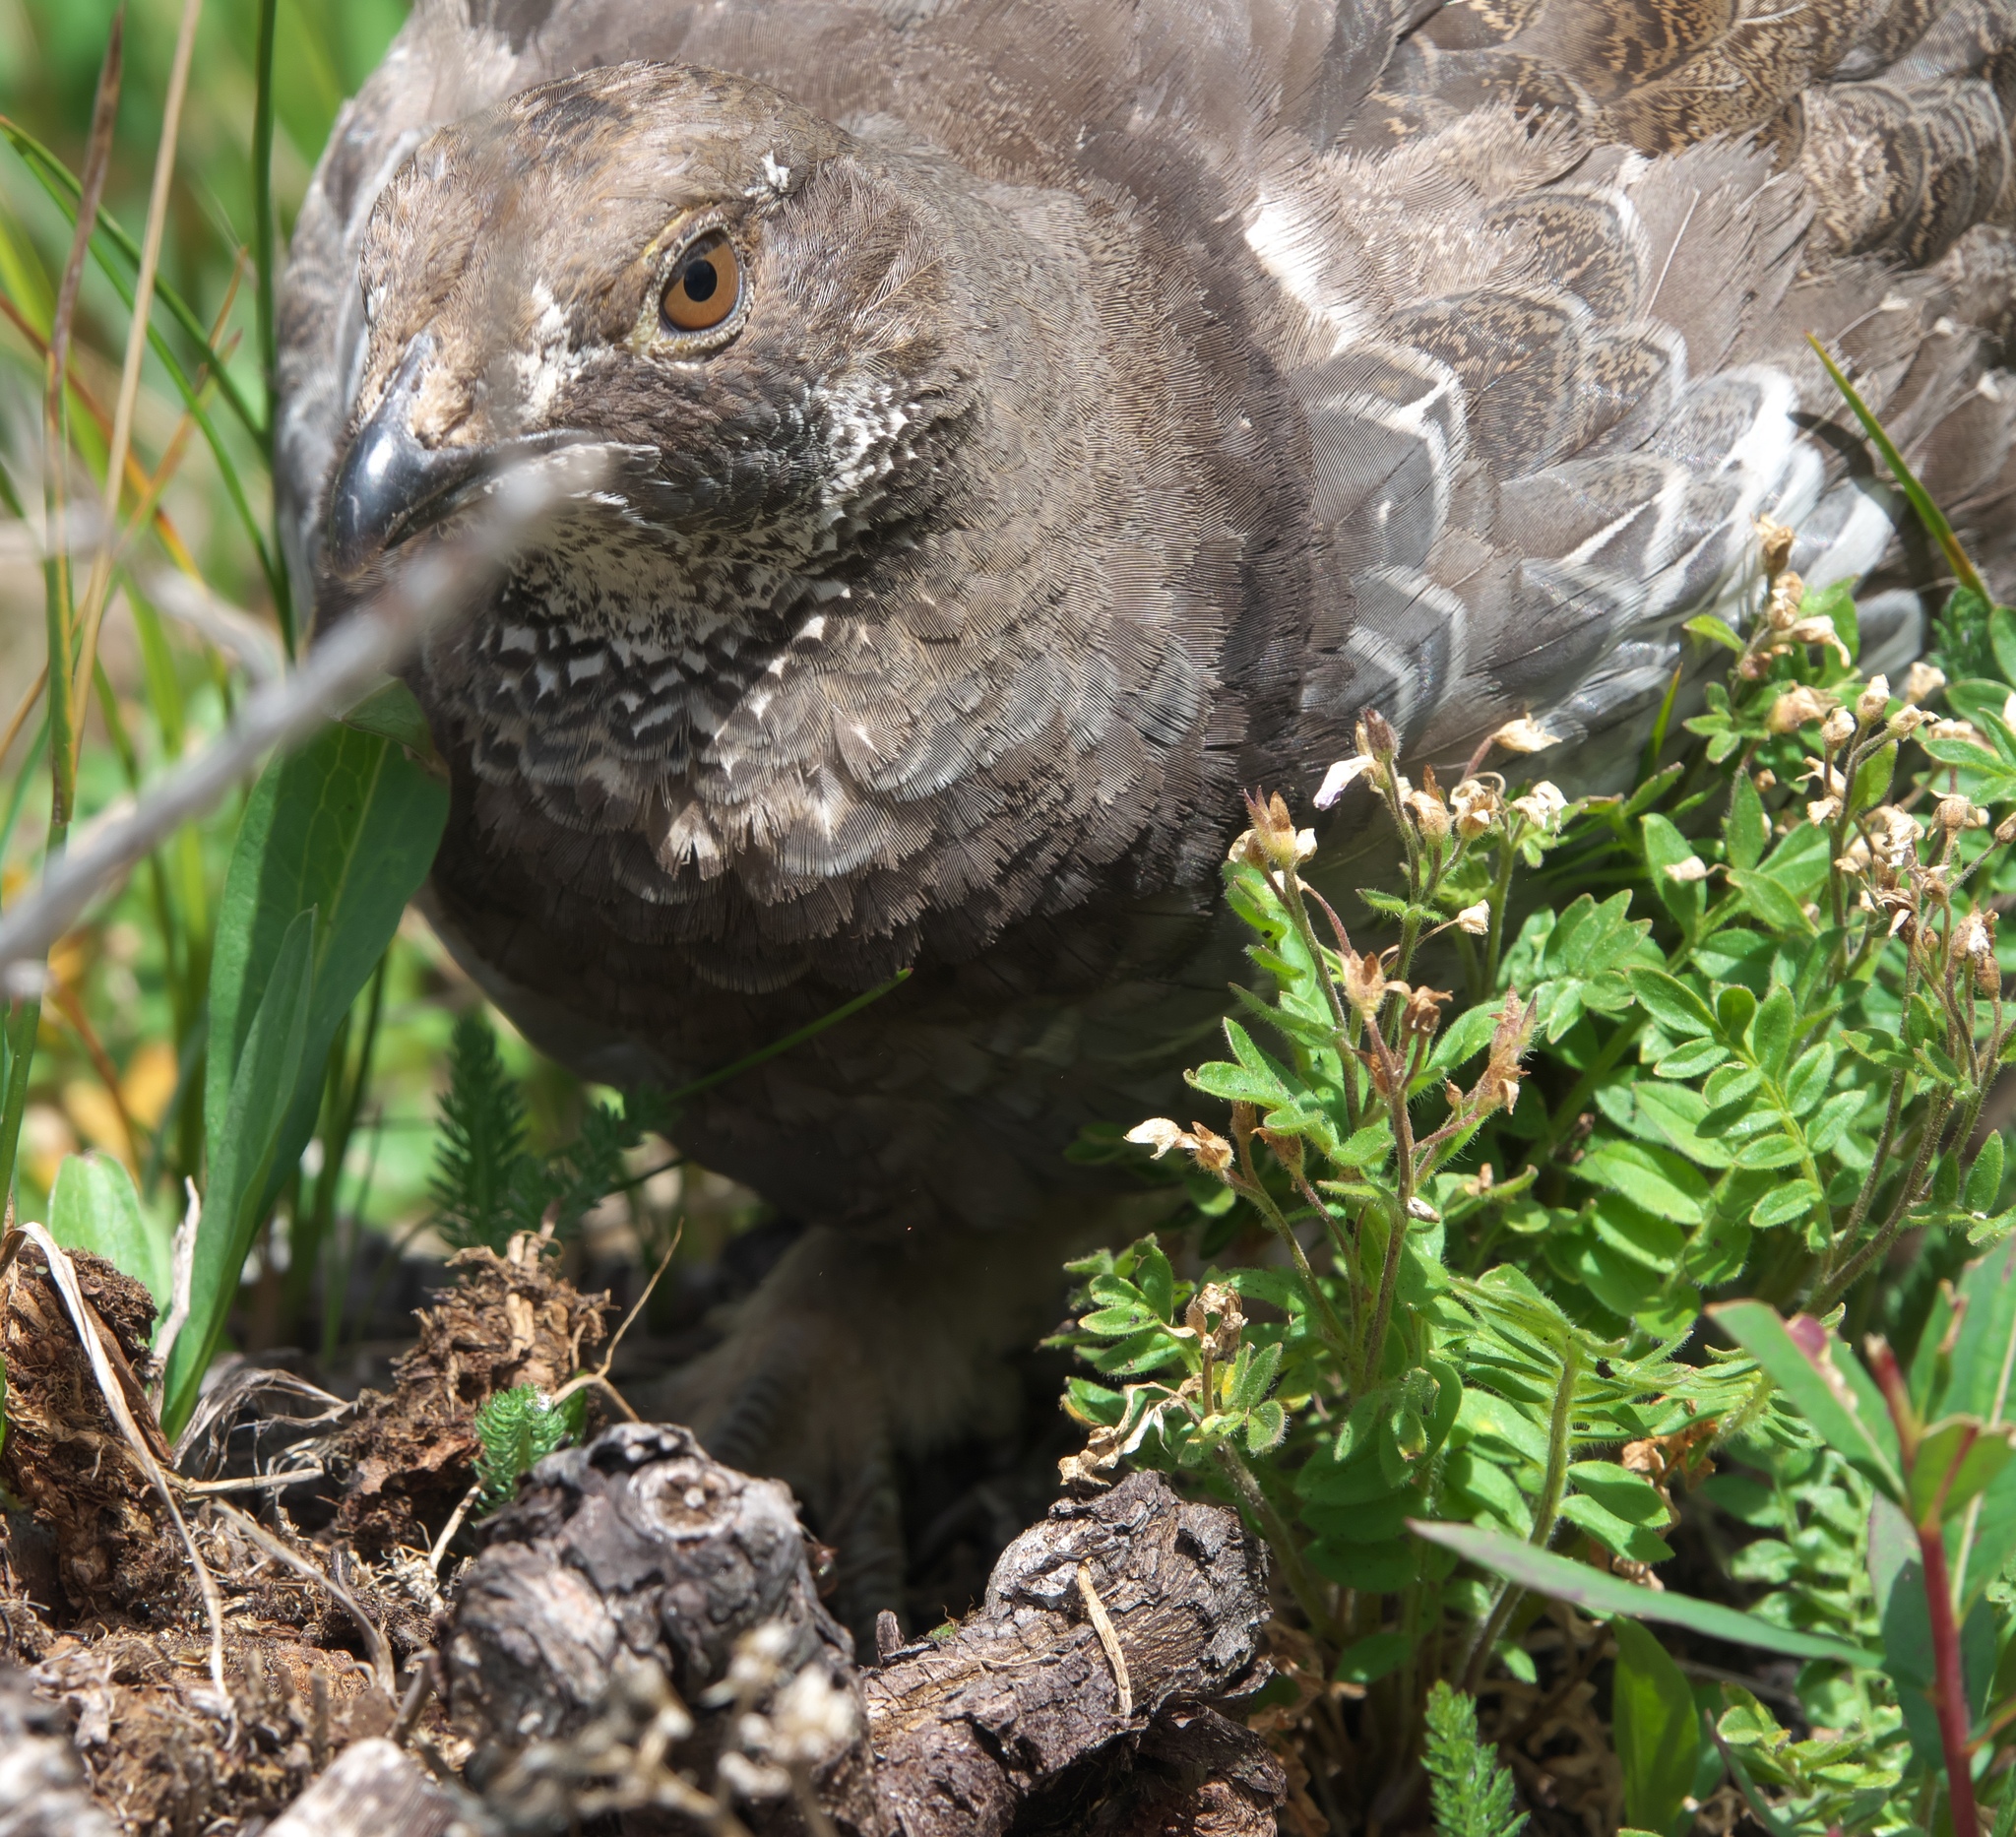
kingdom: Animalia
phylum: Chordata
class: Aves
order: Galliformes
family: Phasianidae
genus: Dendragapus
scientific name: Dendragapus obscurus
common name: Dusky grouse
